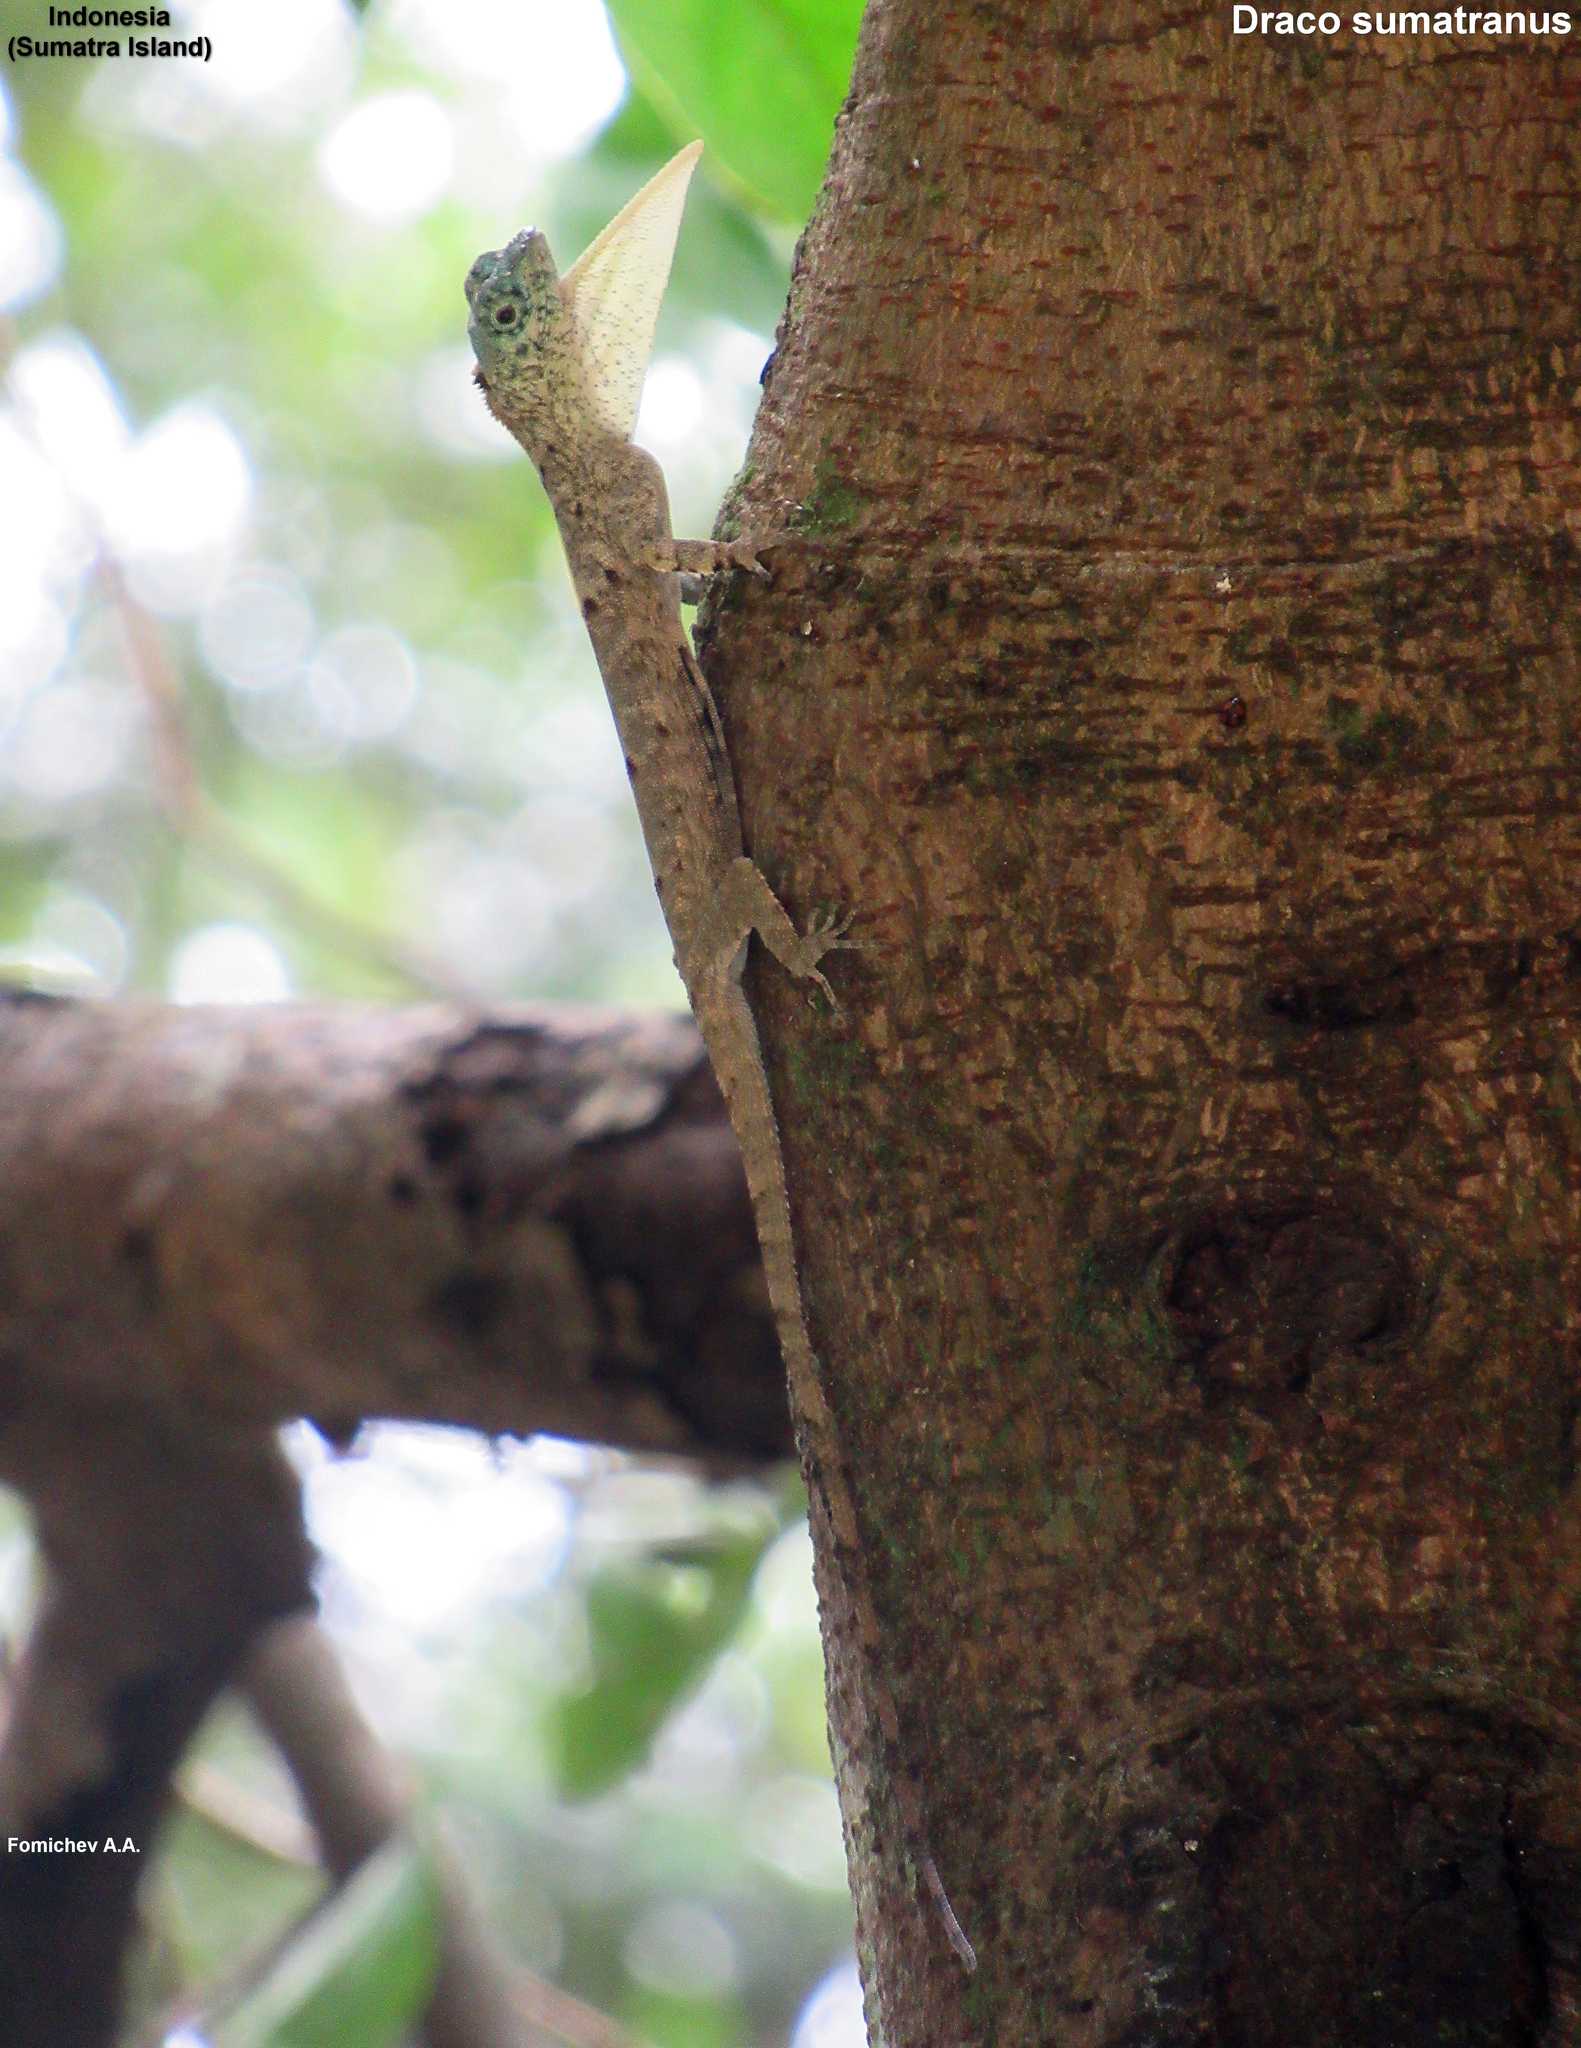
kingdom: Animalia
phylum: Chordata
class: Squamata
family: Agamidae
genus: Draco
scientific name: Draco sumatranus
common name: Common gliding lizard
